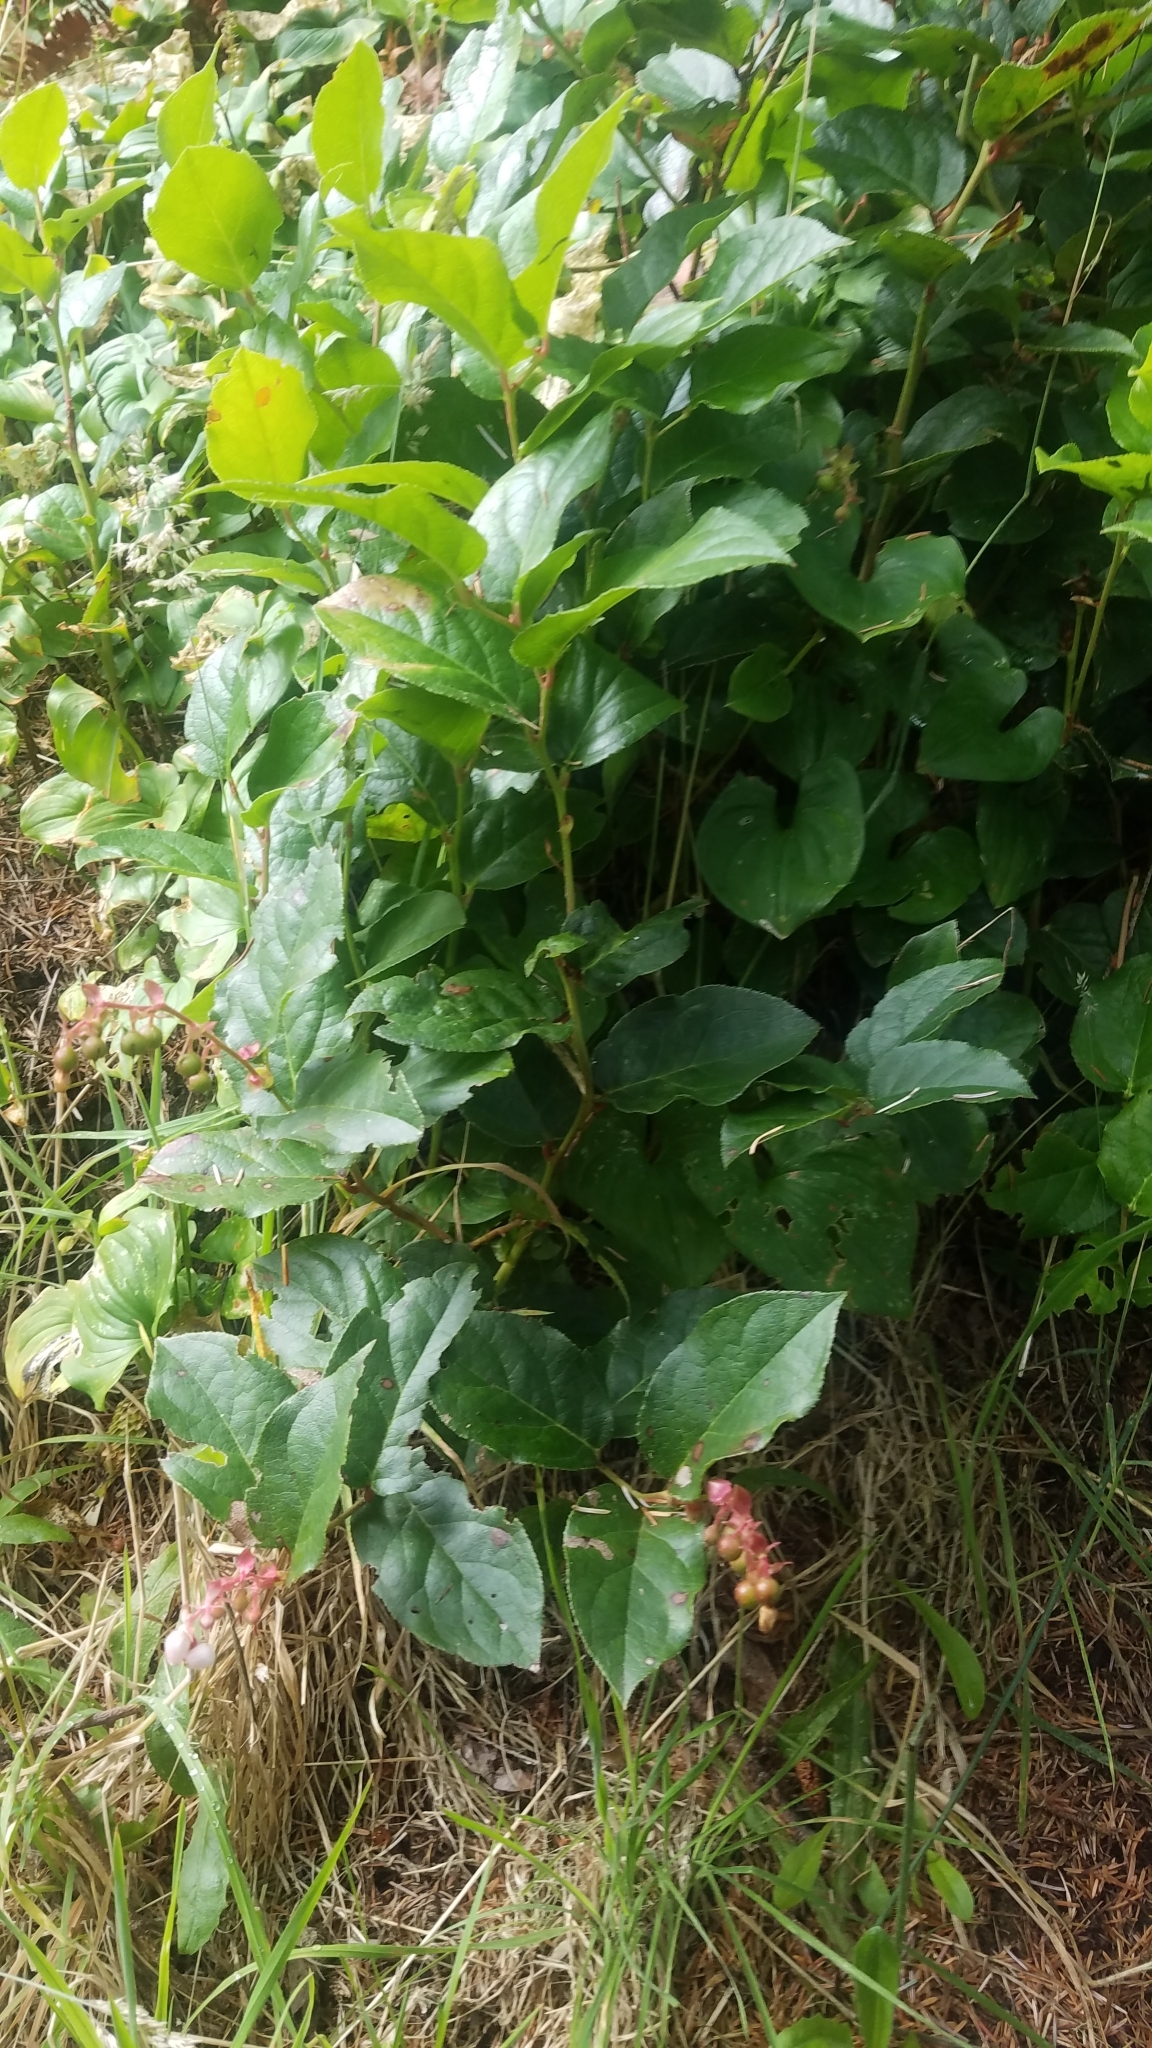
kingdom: Plantae
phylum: Tracheophyta
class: Magnoliopsida
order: Ericales
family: Ericaceae
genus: Gaultheria
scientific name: Gaultheria shallon
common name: Shallon
